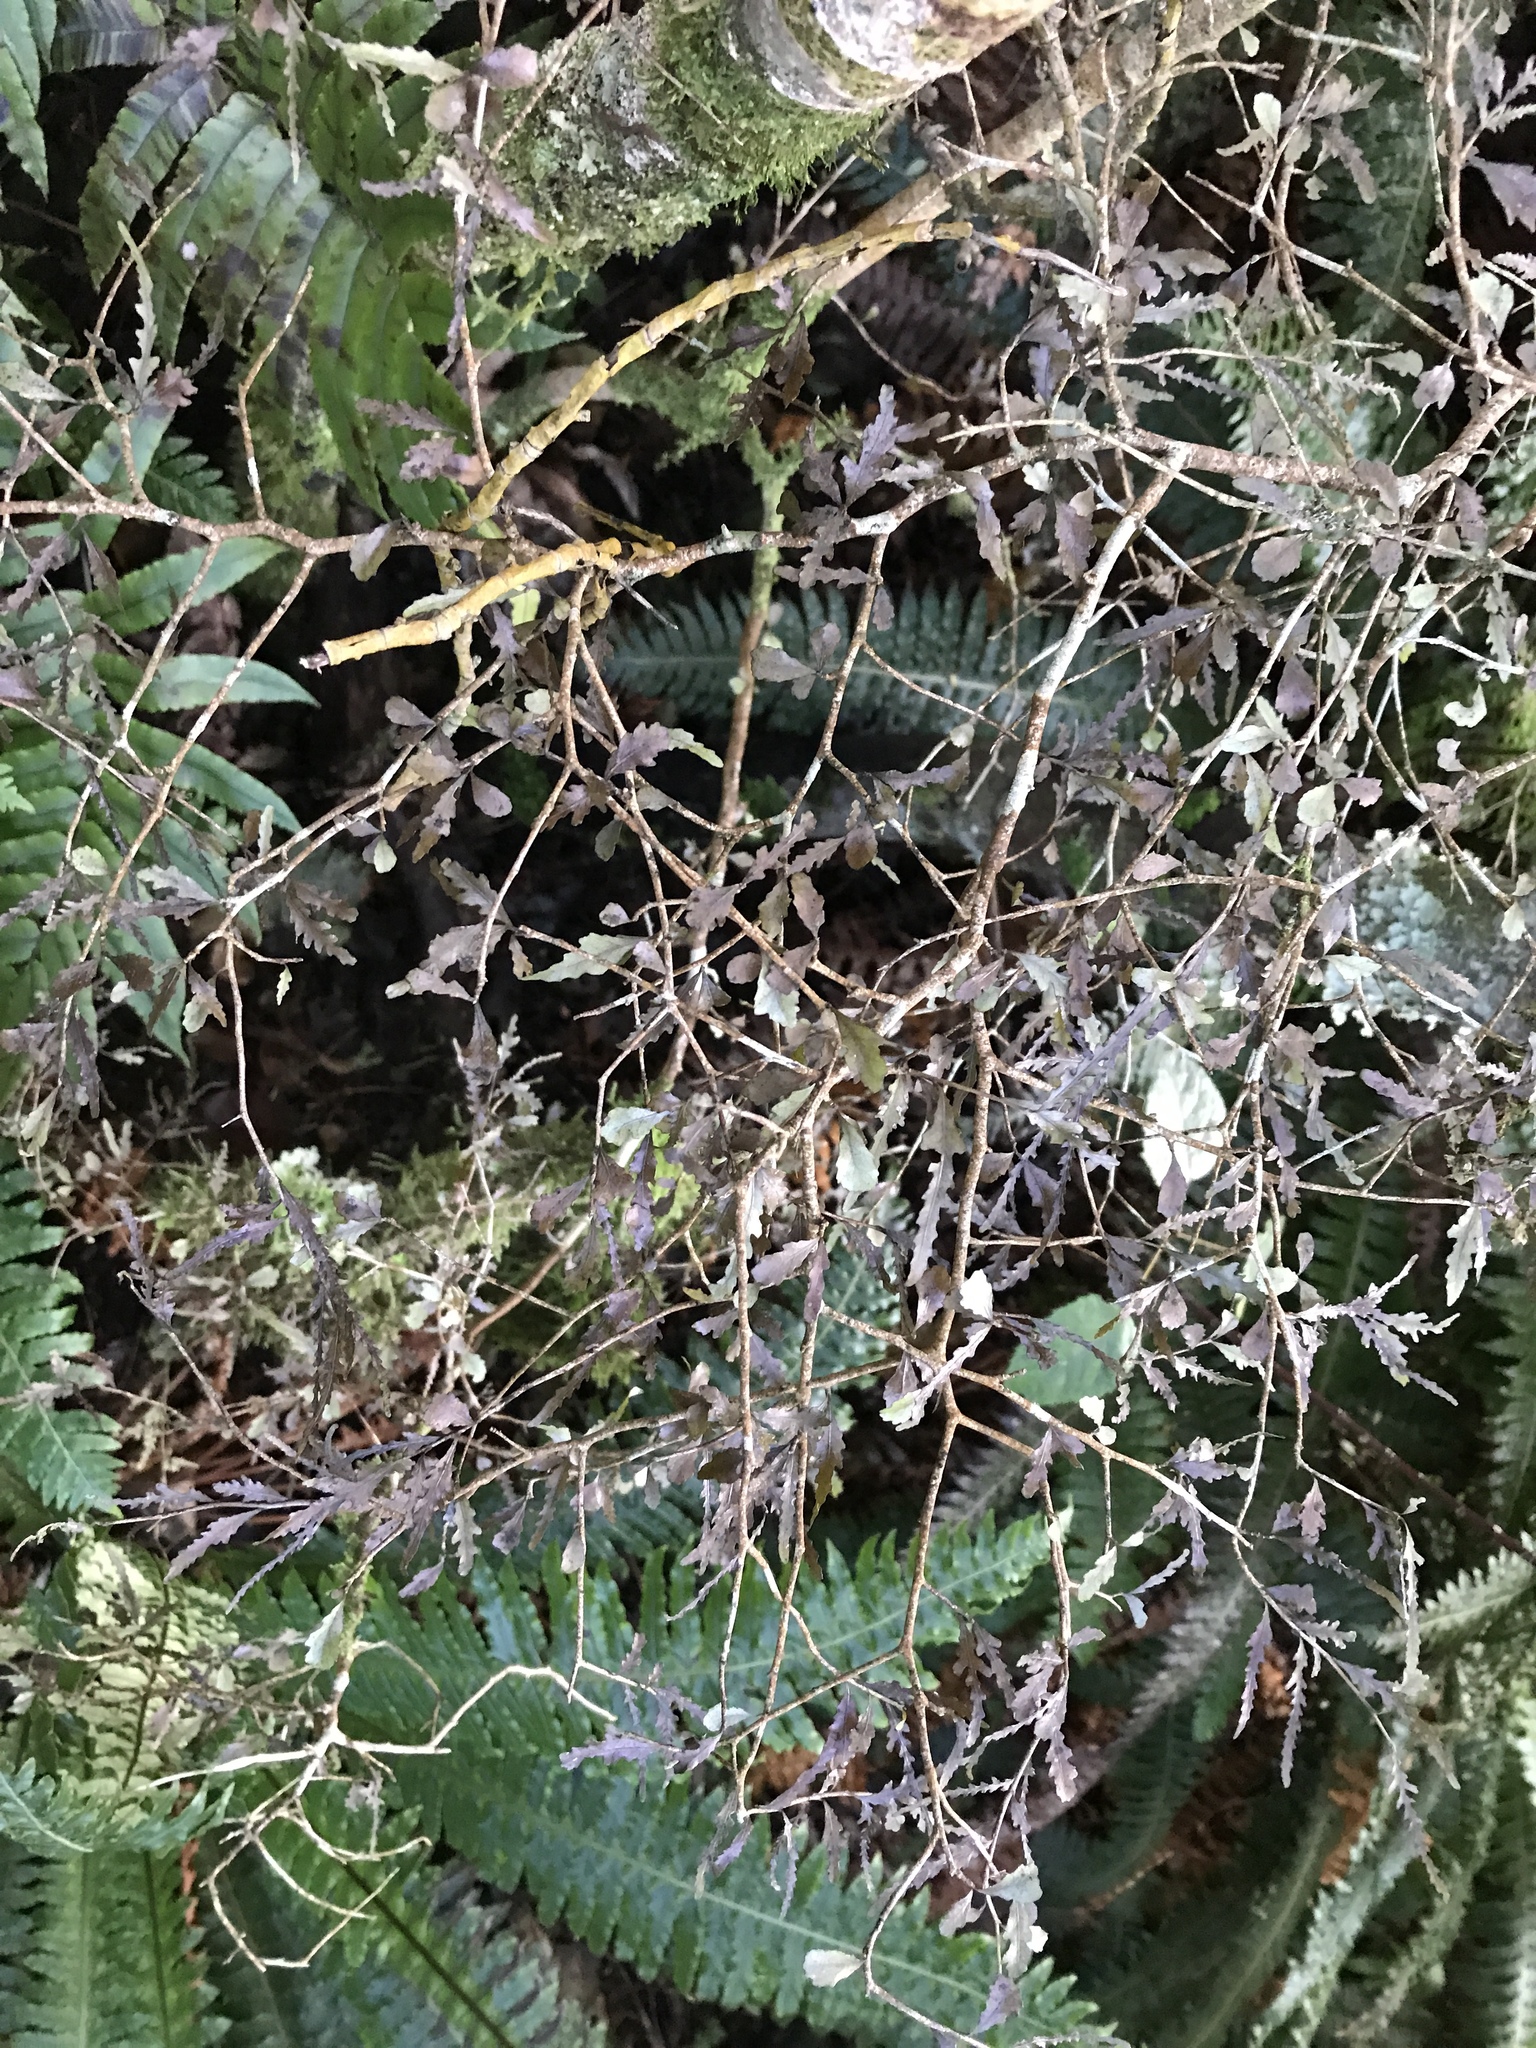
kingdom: Plantae
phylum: Tracheophyta
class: Magnoliopsida
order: Oxalidales
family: Elaeocarpaceae
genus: Elaeocarpus
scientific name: Elaeocarpus hookerianus
